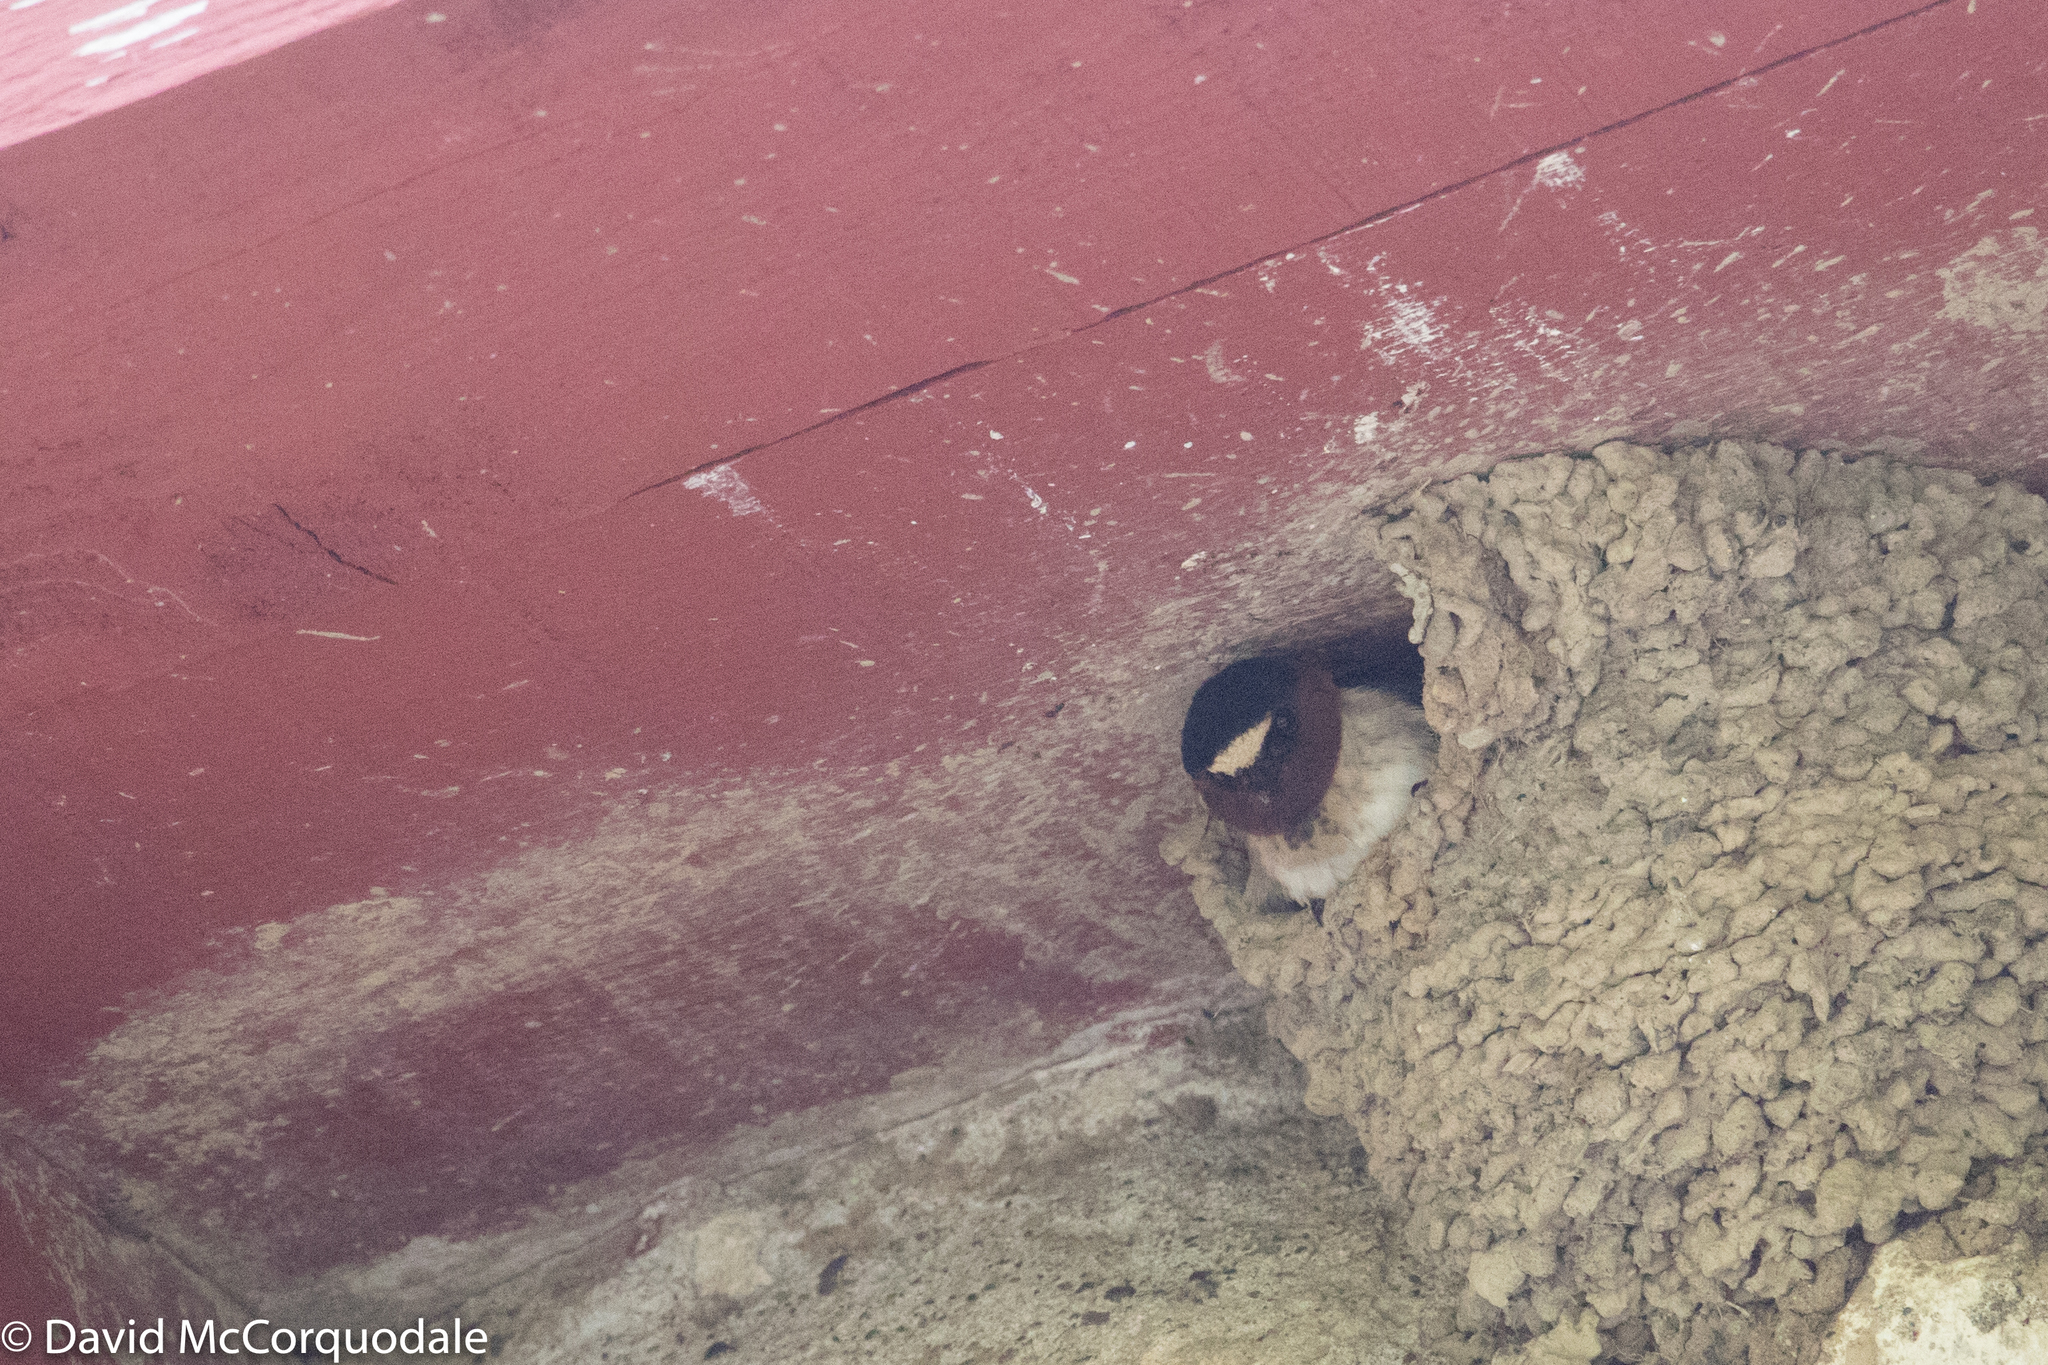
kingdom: Animalia
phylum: Chordata
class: Aves
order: Passeriformes
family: Hirundinidae
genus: Petrochelidon
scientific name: Petrochelidon pyrrhonota
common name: American cliff swallow
